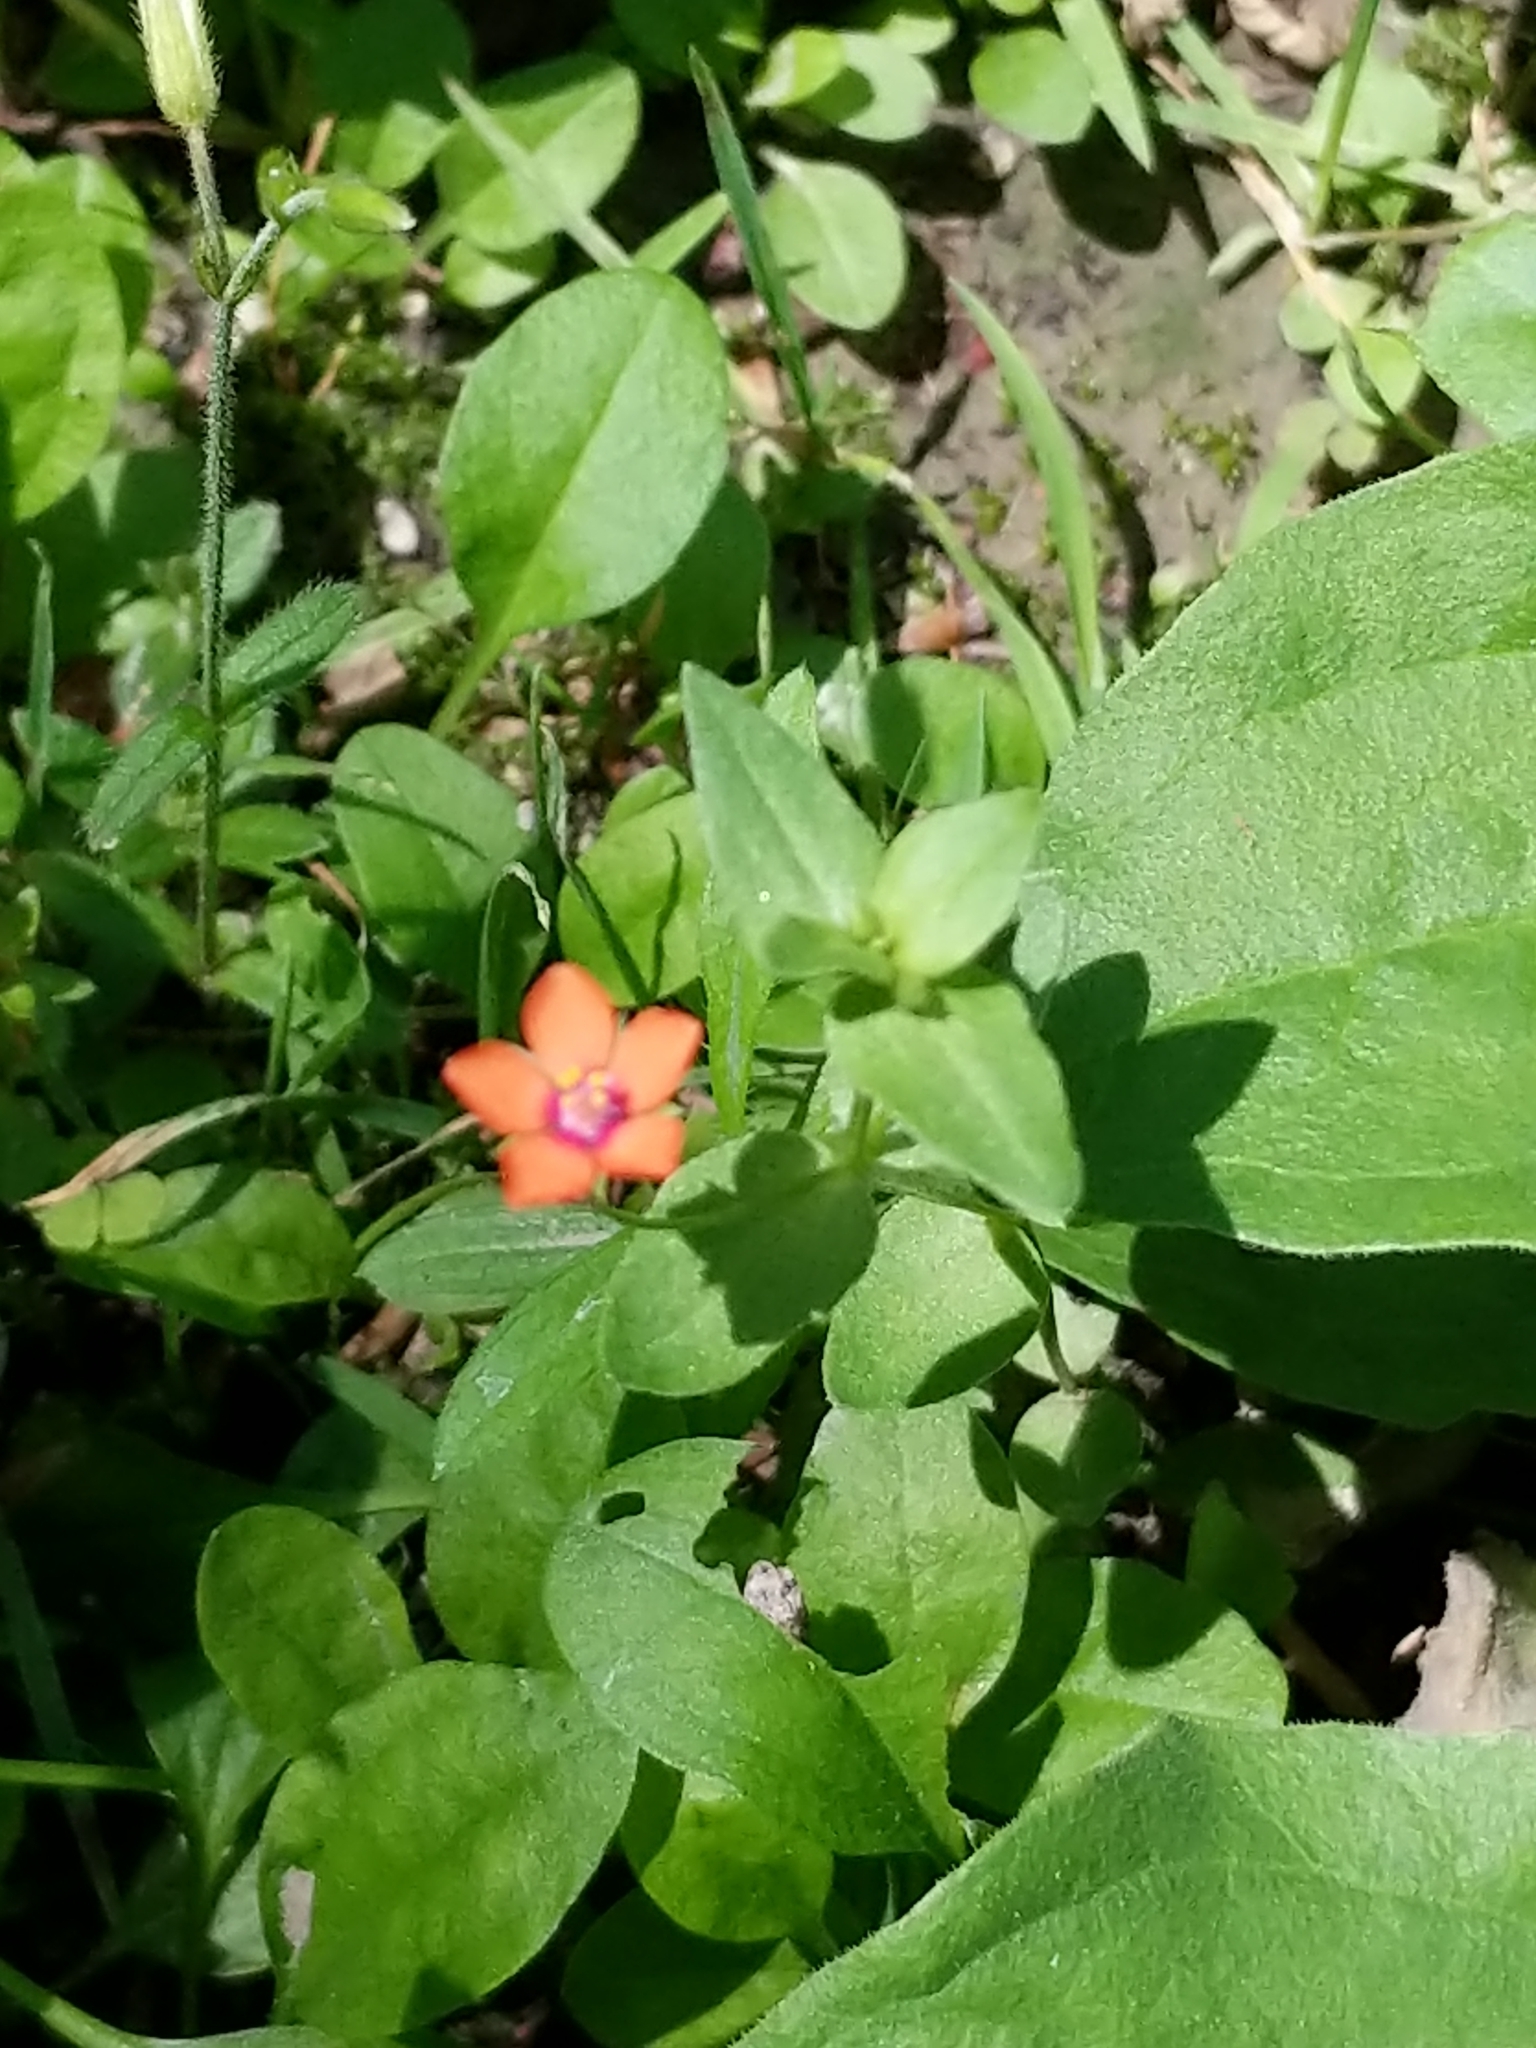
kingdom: Plantae
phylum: Tracheophyta
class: Magnoliopsida
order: Ericales
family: Primulaceae
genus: Lysimachia
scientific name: Lysimachia arvensis
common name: Scarlet pimpernel
